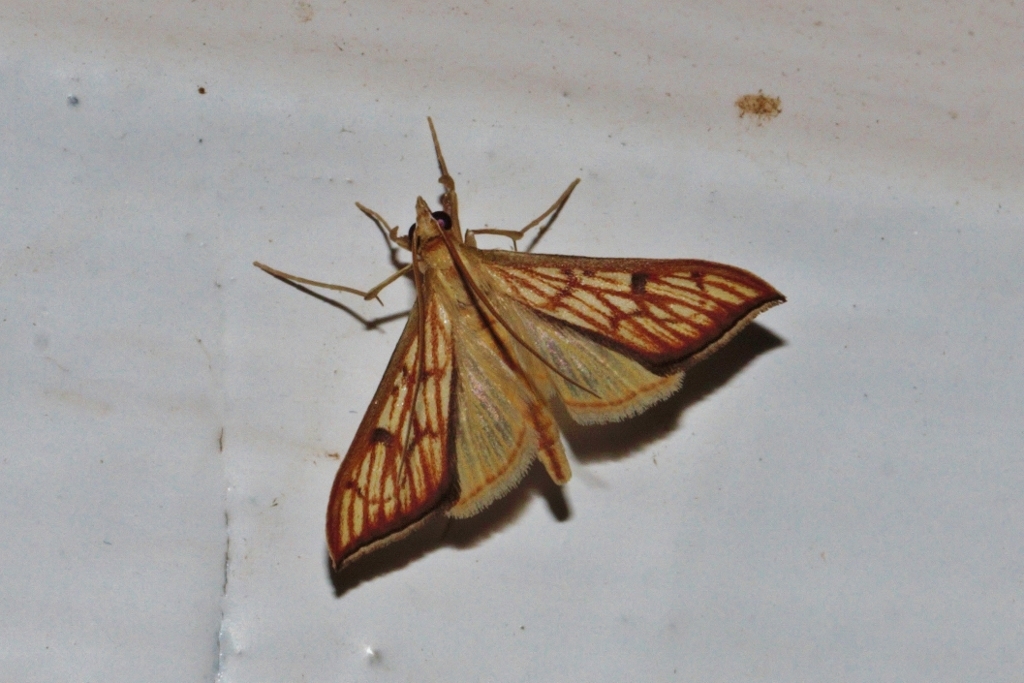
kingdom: Animalia
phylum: Arthropoda
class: Insecta
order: Lepidoptera
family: Crambidae
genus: Antigastra
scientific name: Antigastra catalaunalis
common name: Spanish dot
